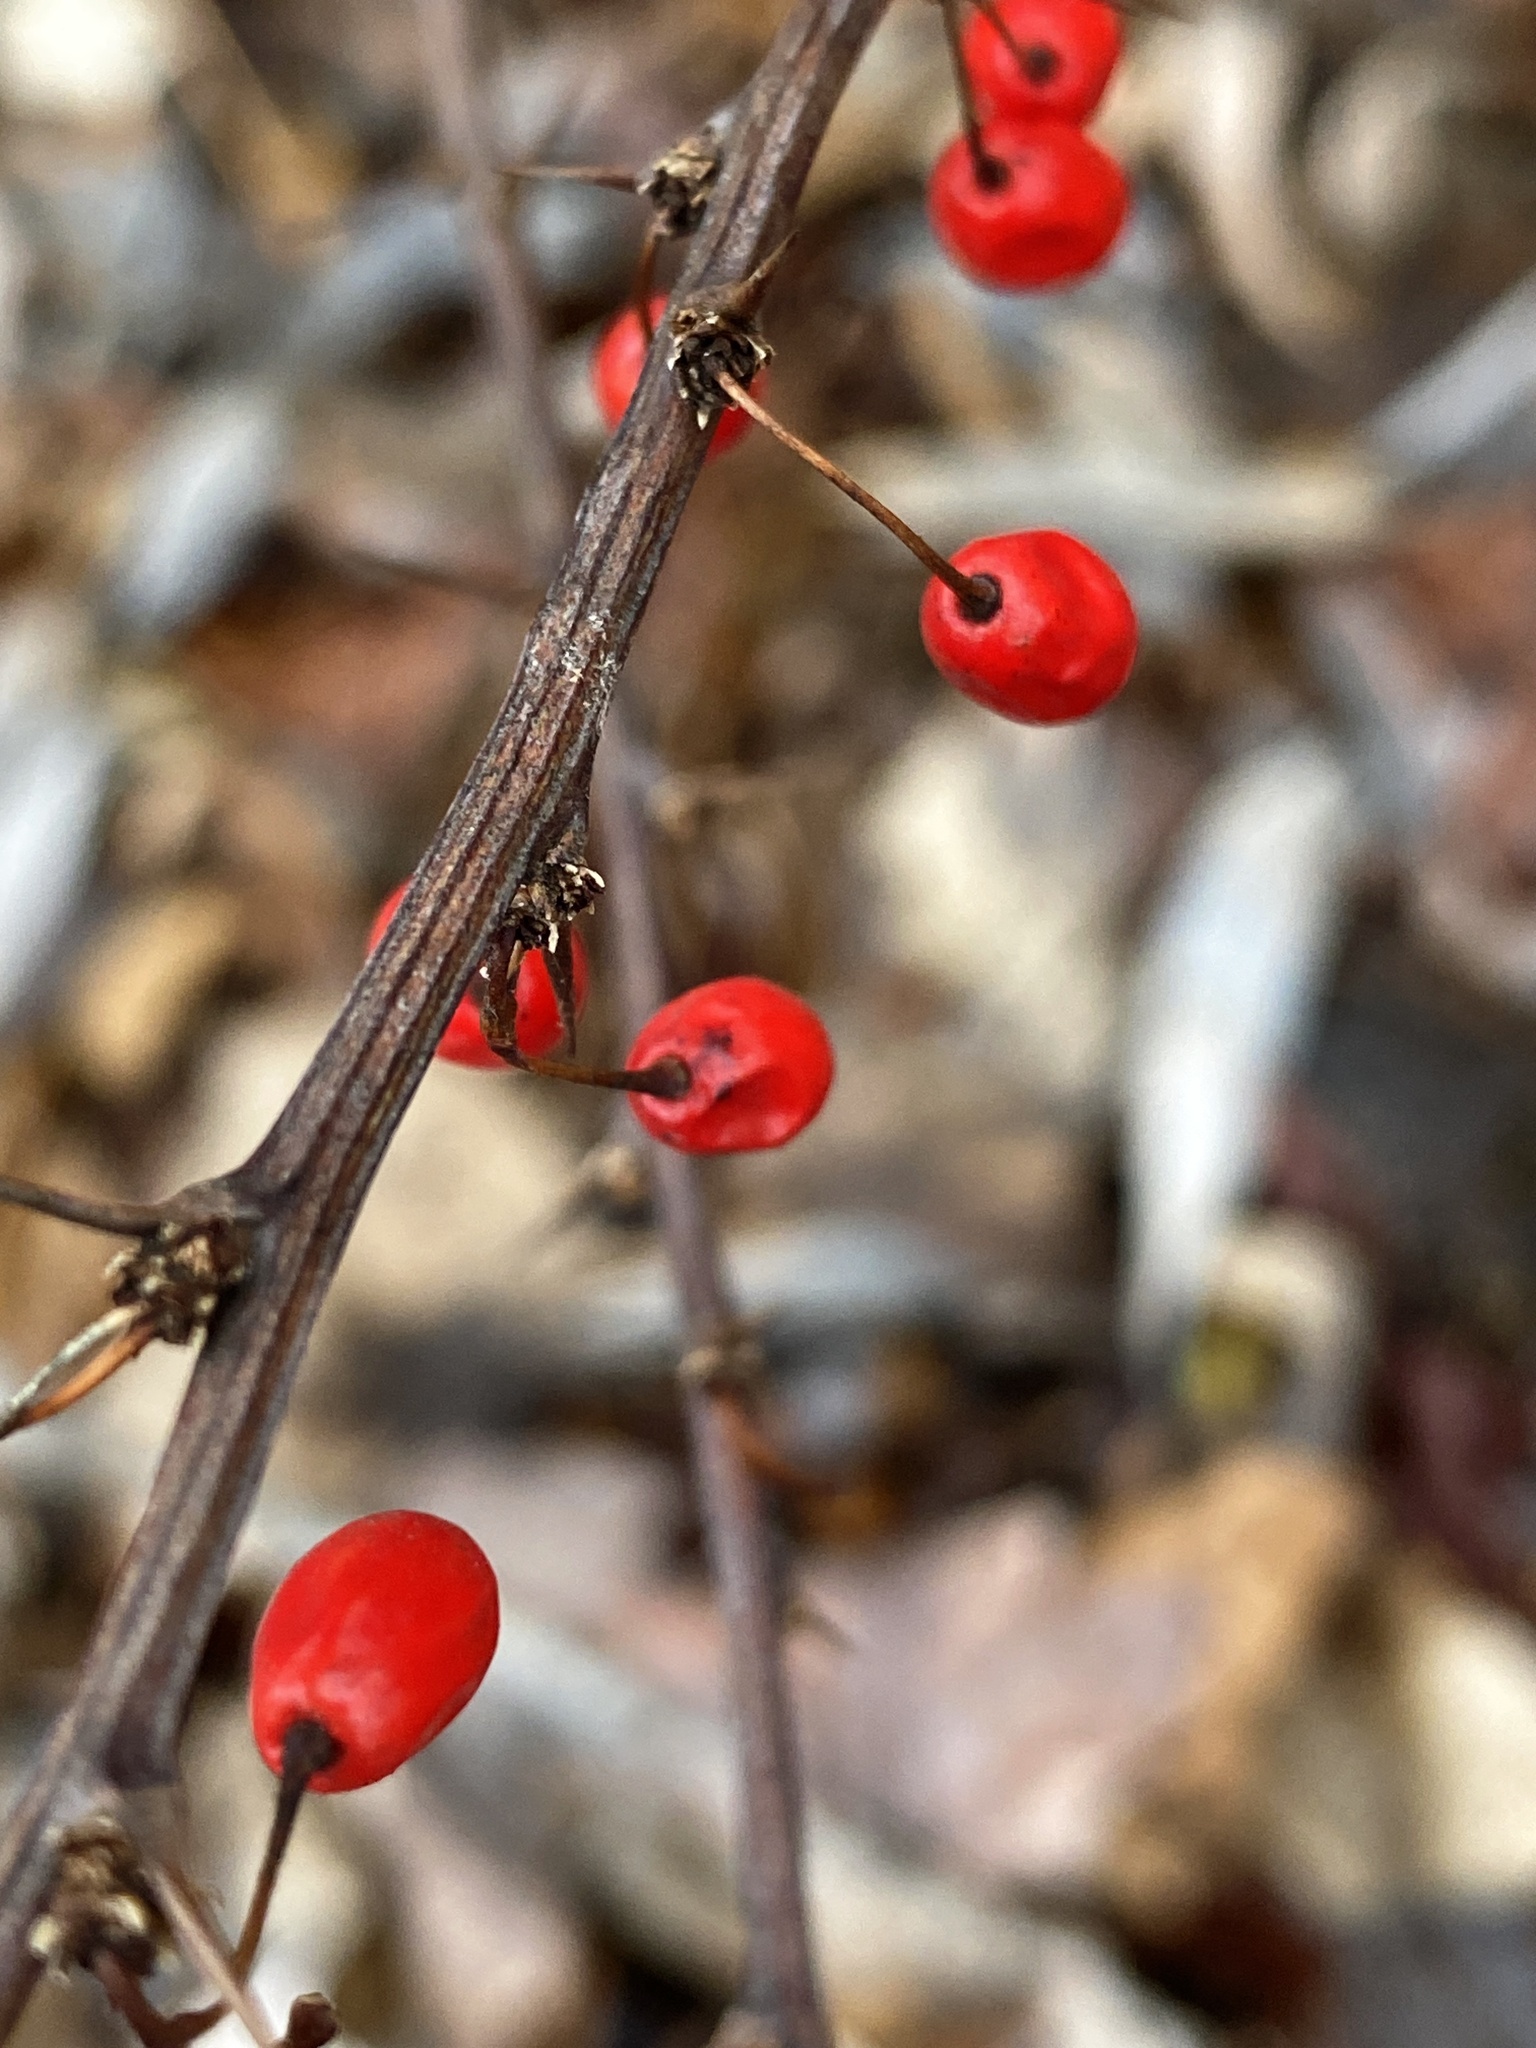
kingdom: Plantae
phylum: Tracheophyta
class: Magnoliopsida
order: Ranunculales
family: Berberidaceae
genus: Berberis
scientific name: Berberis thunbergii
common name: Japanese barberry
